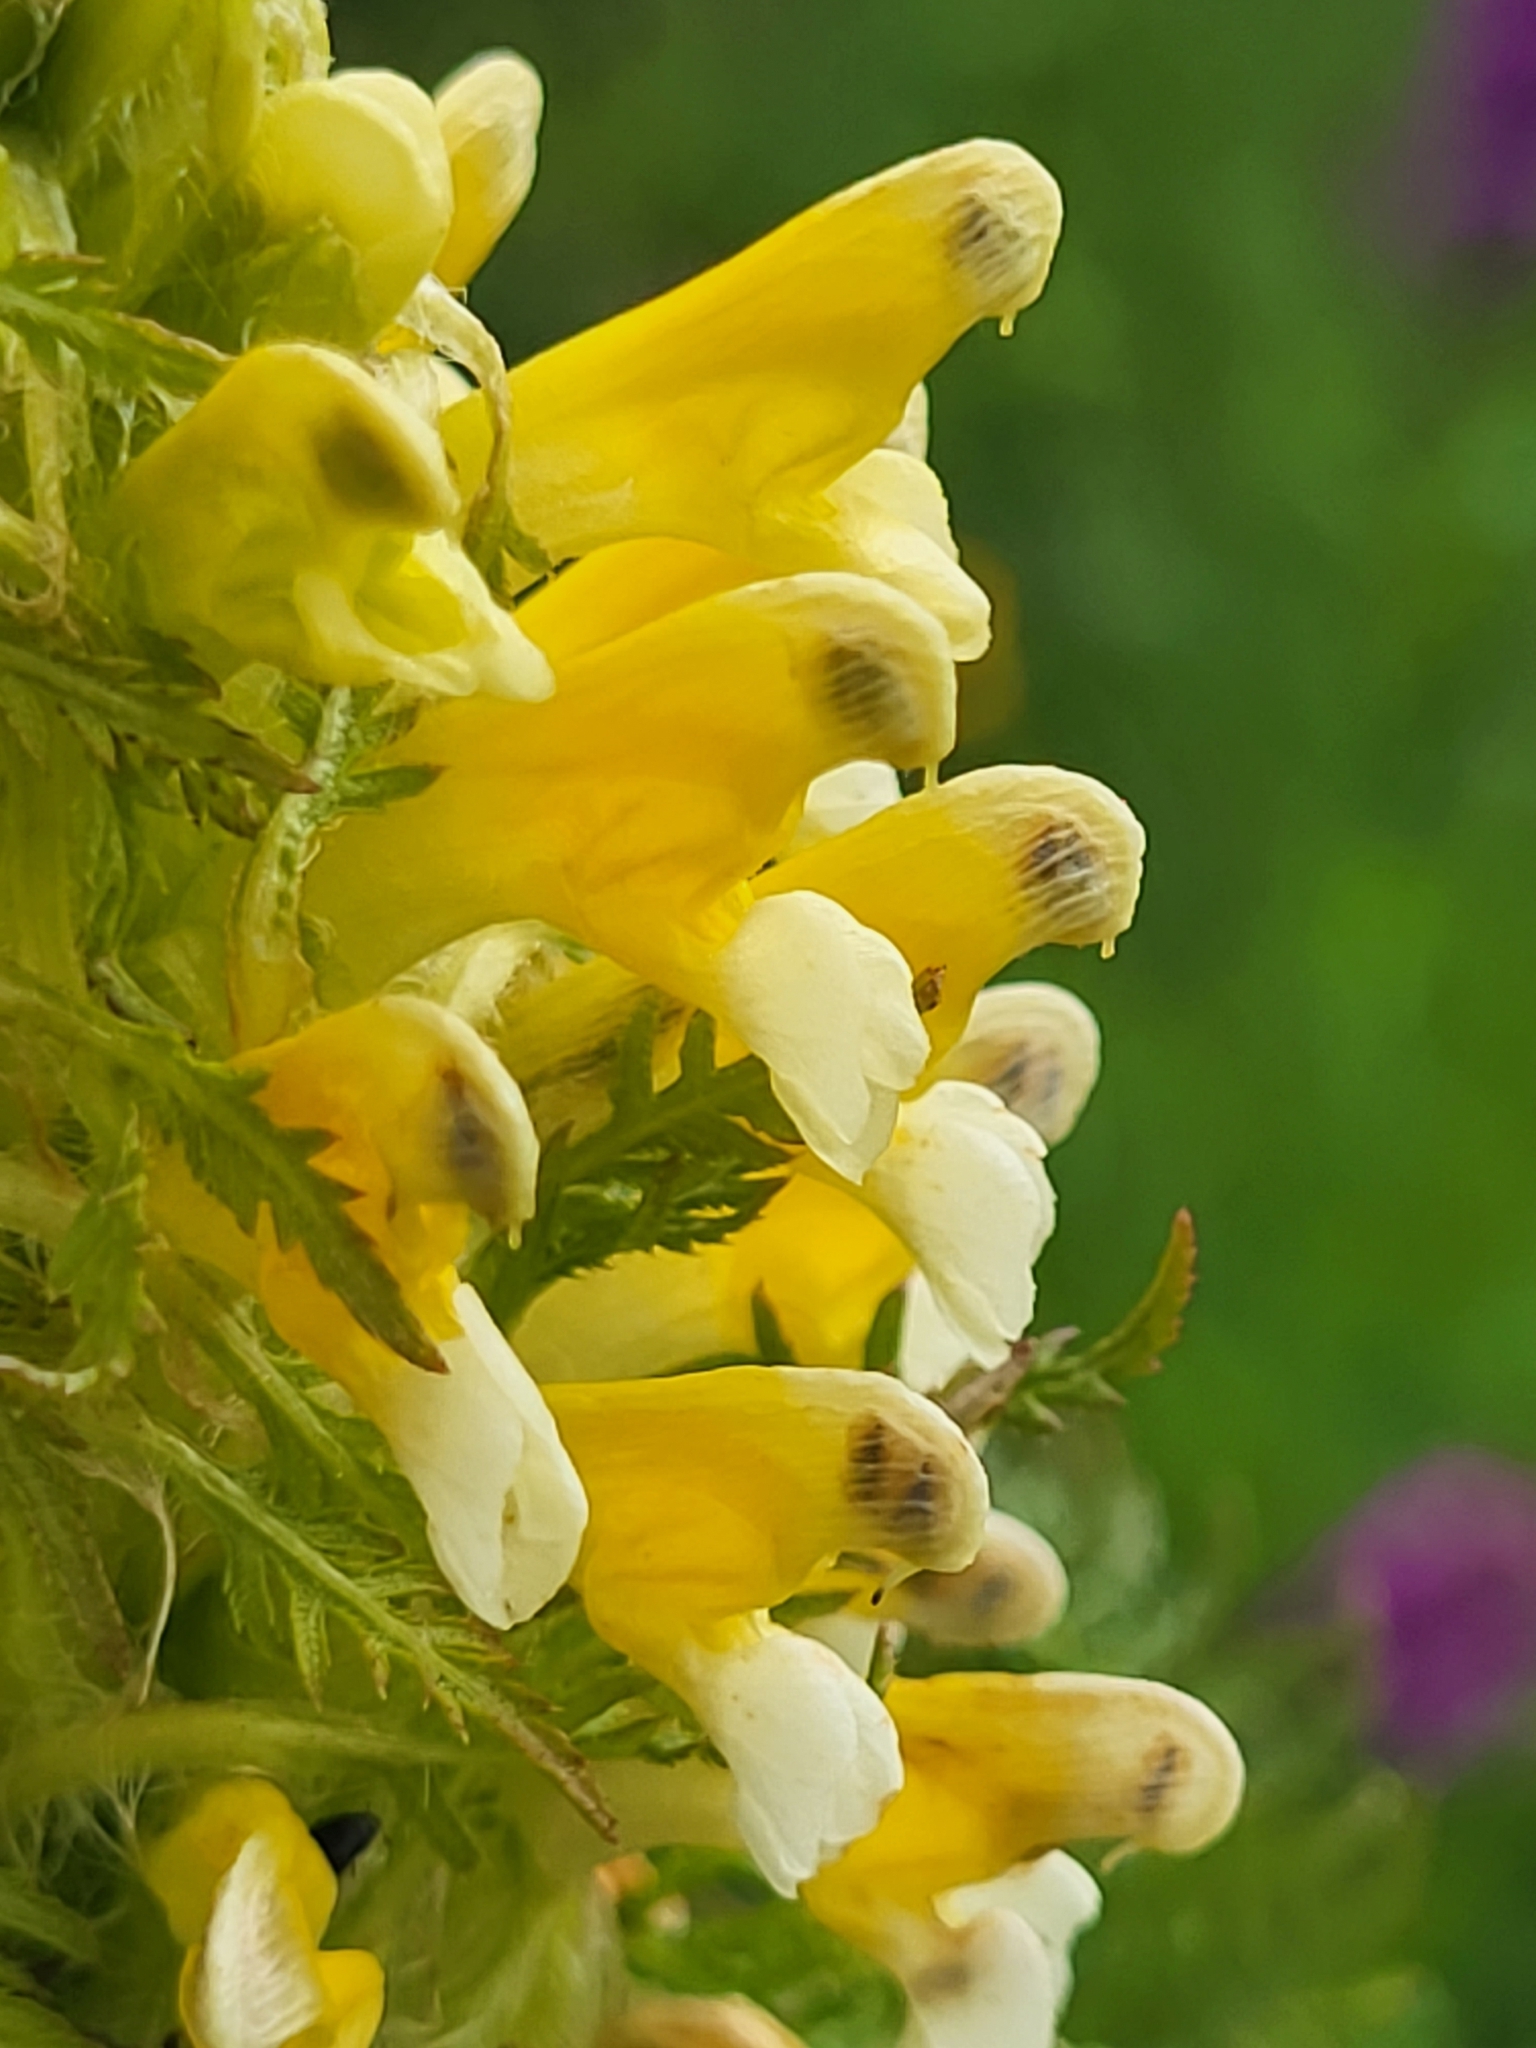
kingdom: Plantae
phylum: Tracheophyta
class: Magnoliopsida
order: Lamiales
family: Orobanchaceae
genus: Pedicularis
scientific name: Pedicularis condensata
